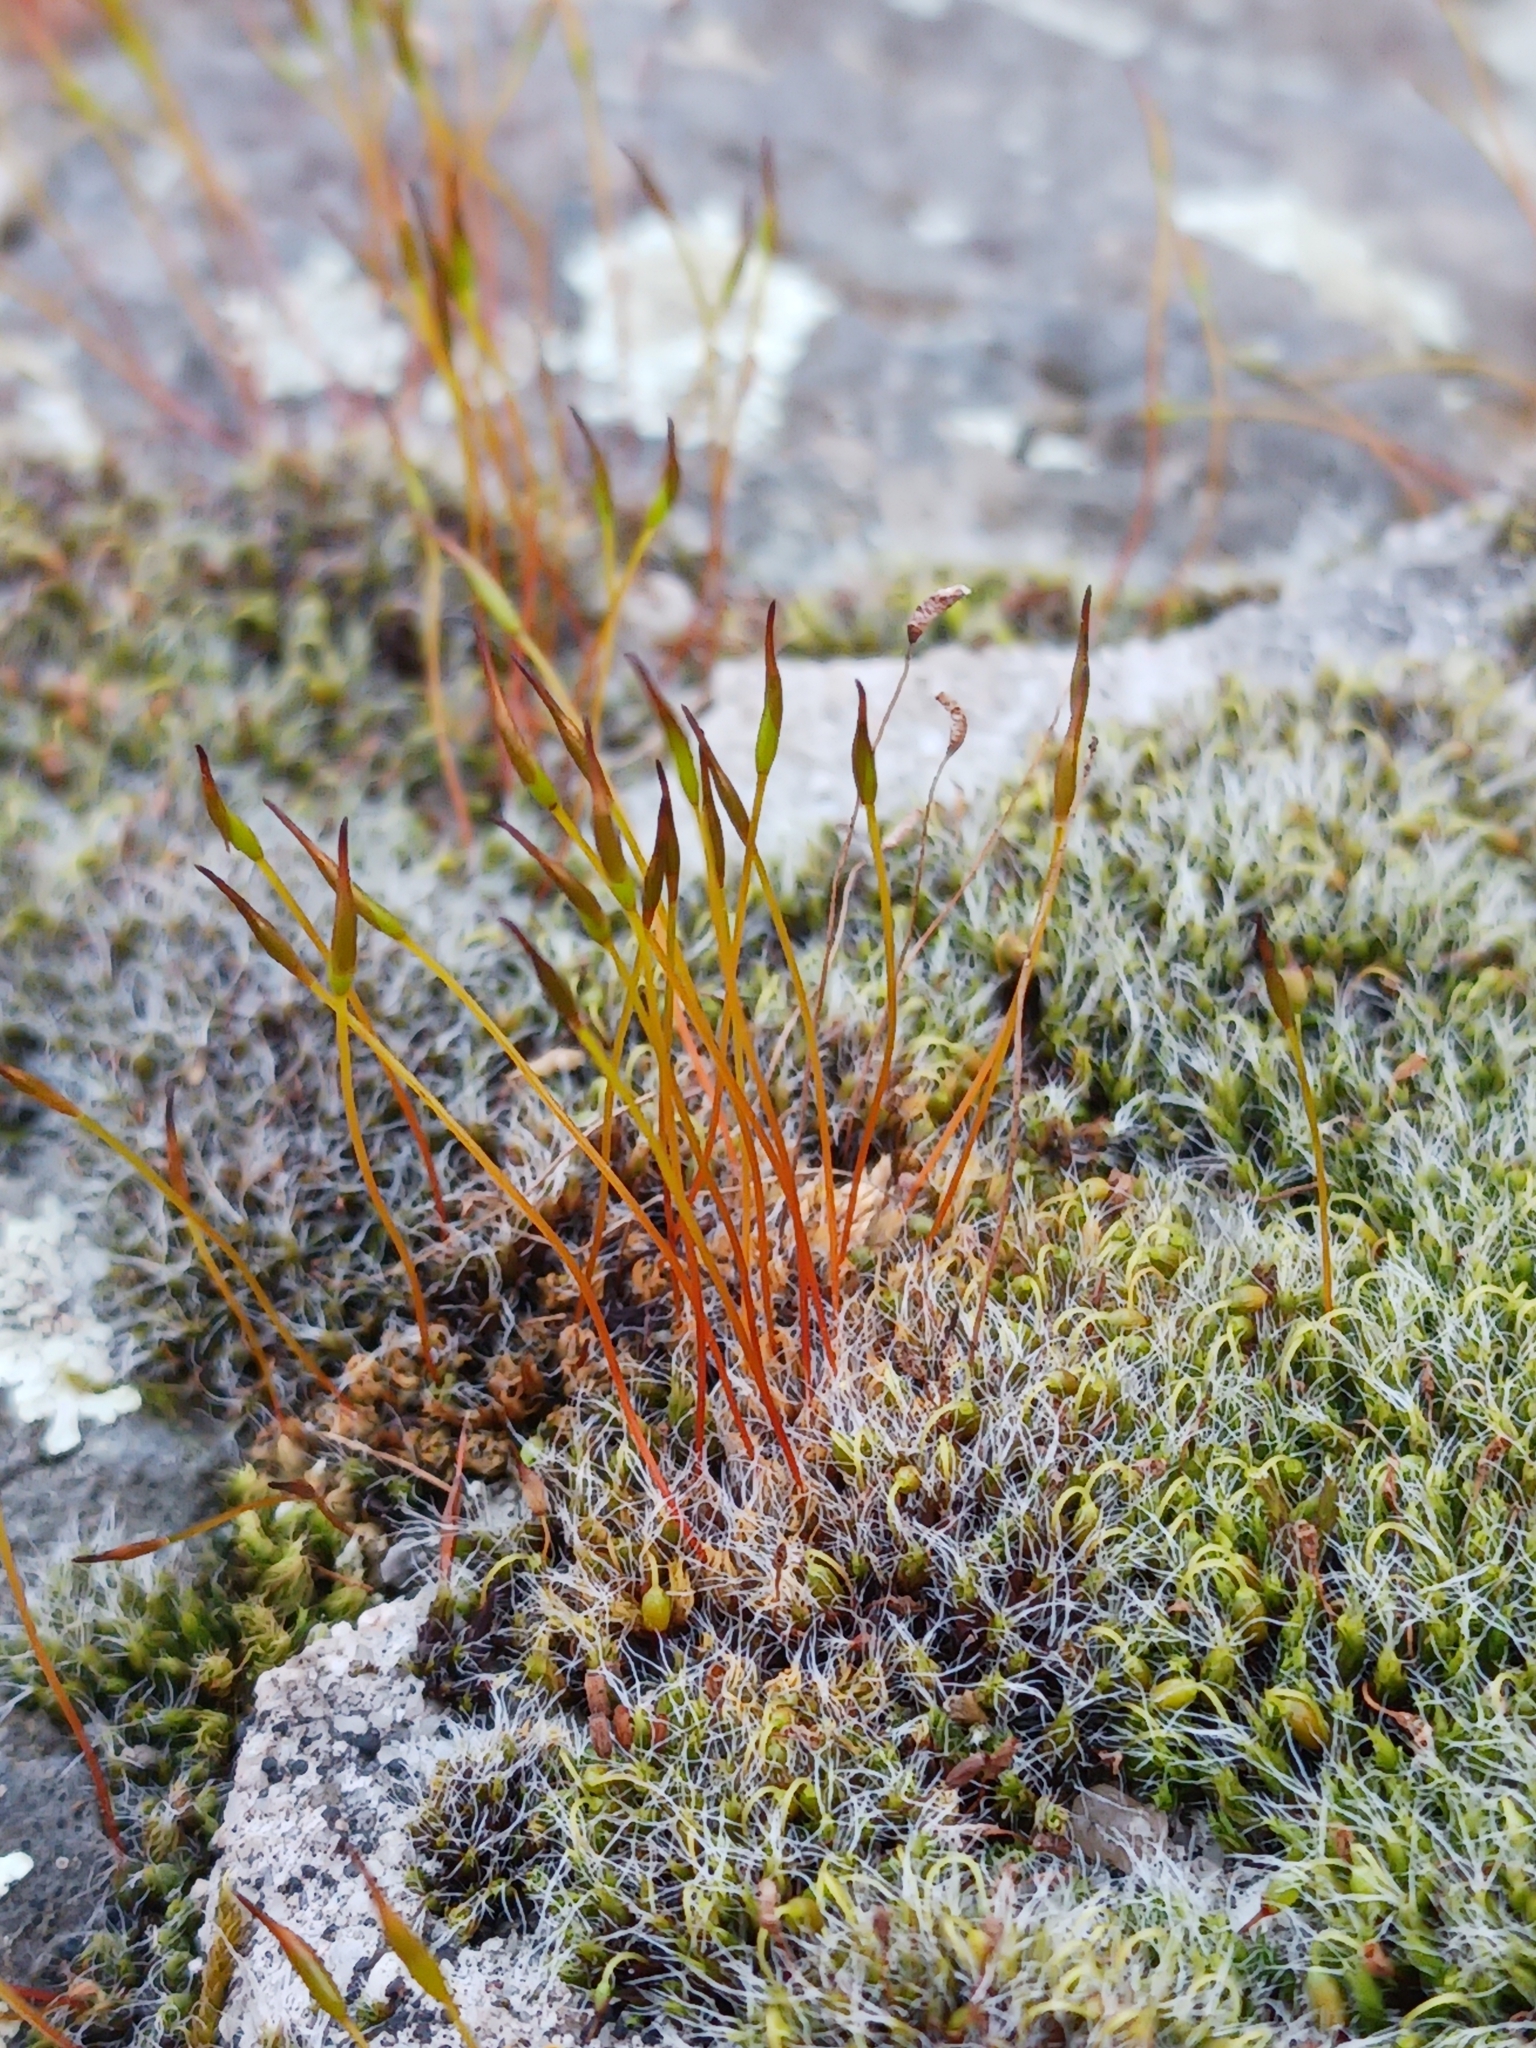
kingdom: Plantae
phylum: Bryophyta
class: Bryopsida
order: Pottiales
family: Pottiaceae
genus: Tortula
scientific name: Tortula muralis
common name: Wall screw-moss
